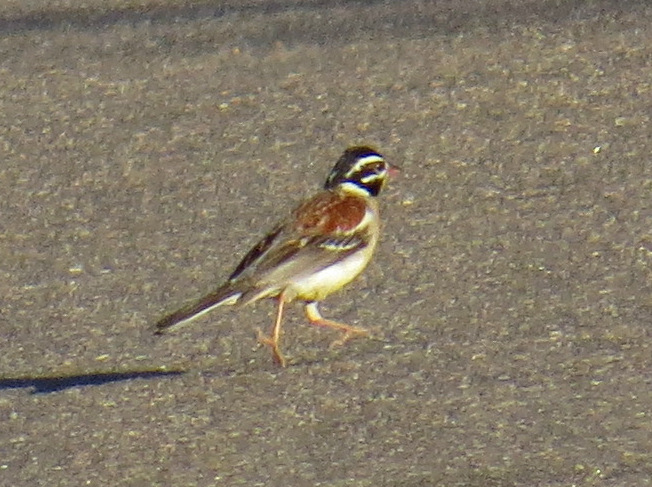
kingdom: Animalia
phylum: Chordata
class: Aves
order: Passeriformes
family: Emberizidae
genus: Emberiza
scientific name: Emberiza flaviventris
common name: Golden-breasted bunting
